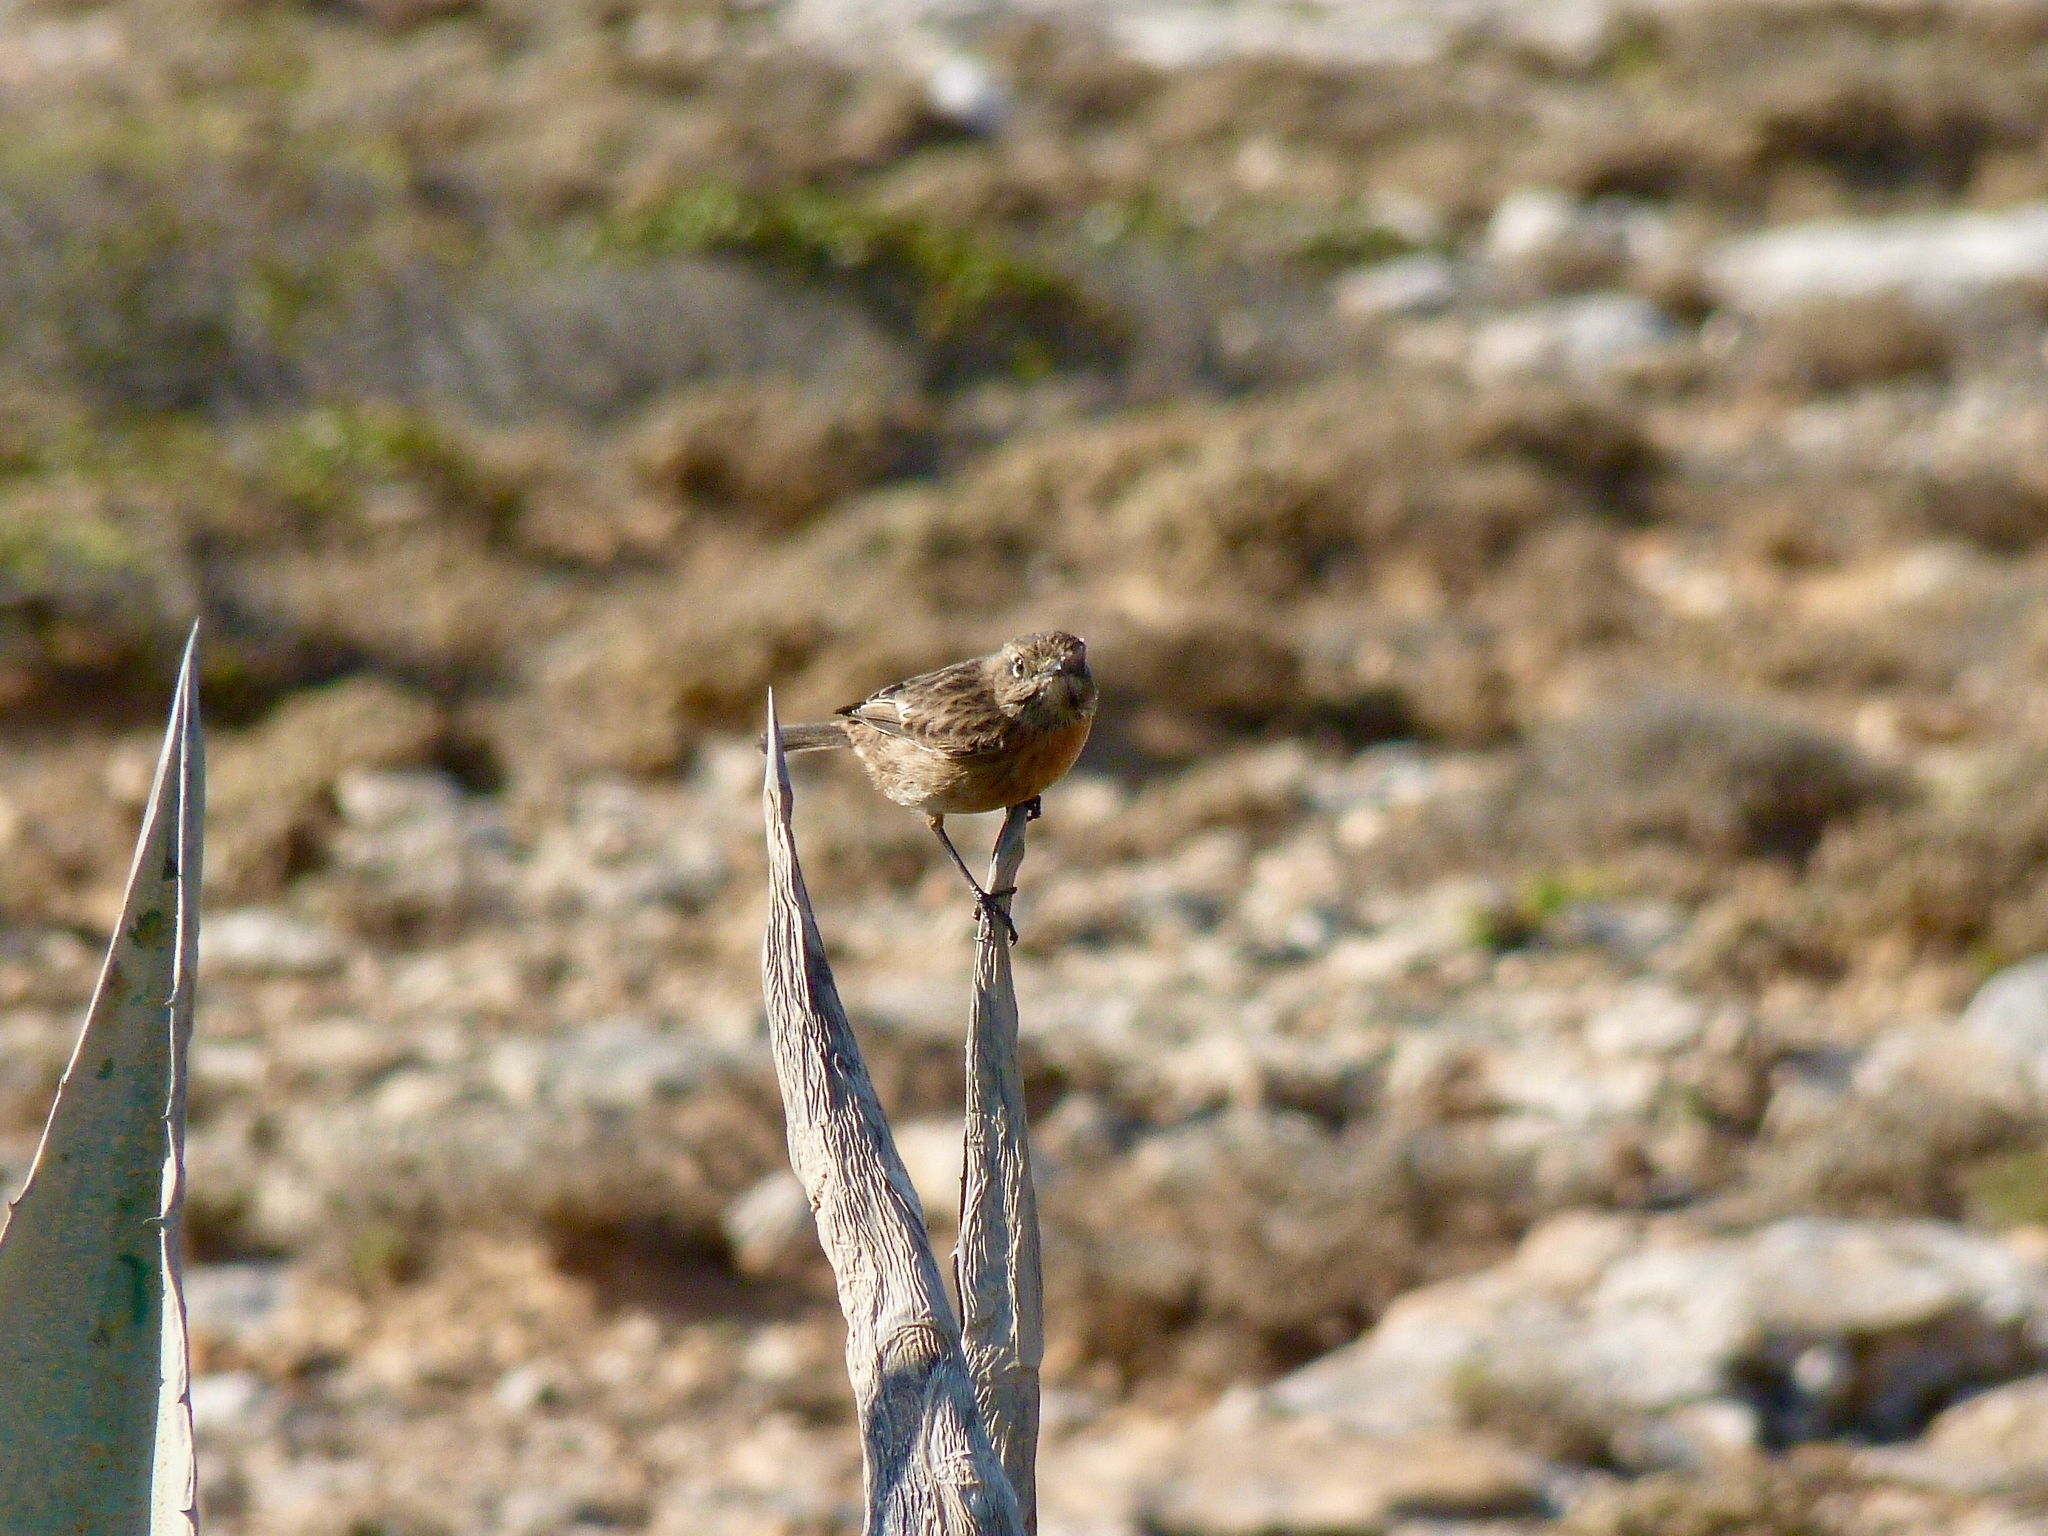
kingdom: Animalia
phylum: Chordata
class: Aves
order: Passeriformes
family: Muscicapidae
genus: Saxicola
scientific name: Saxicola rubicola
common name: European stonechat
